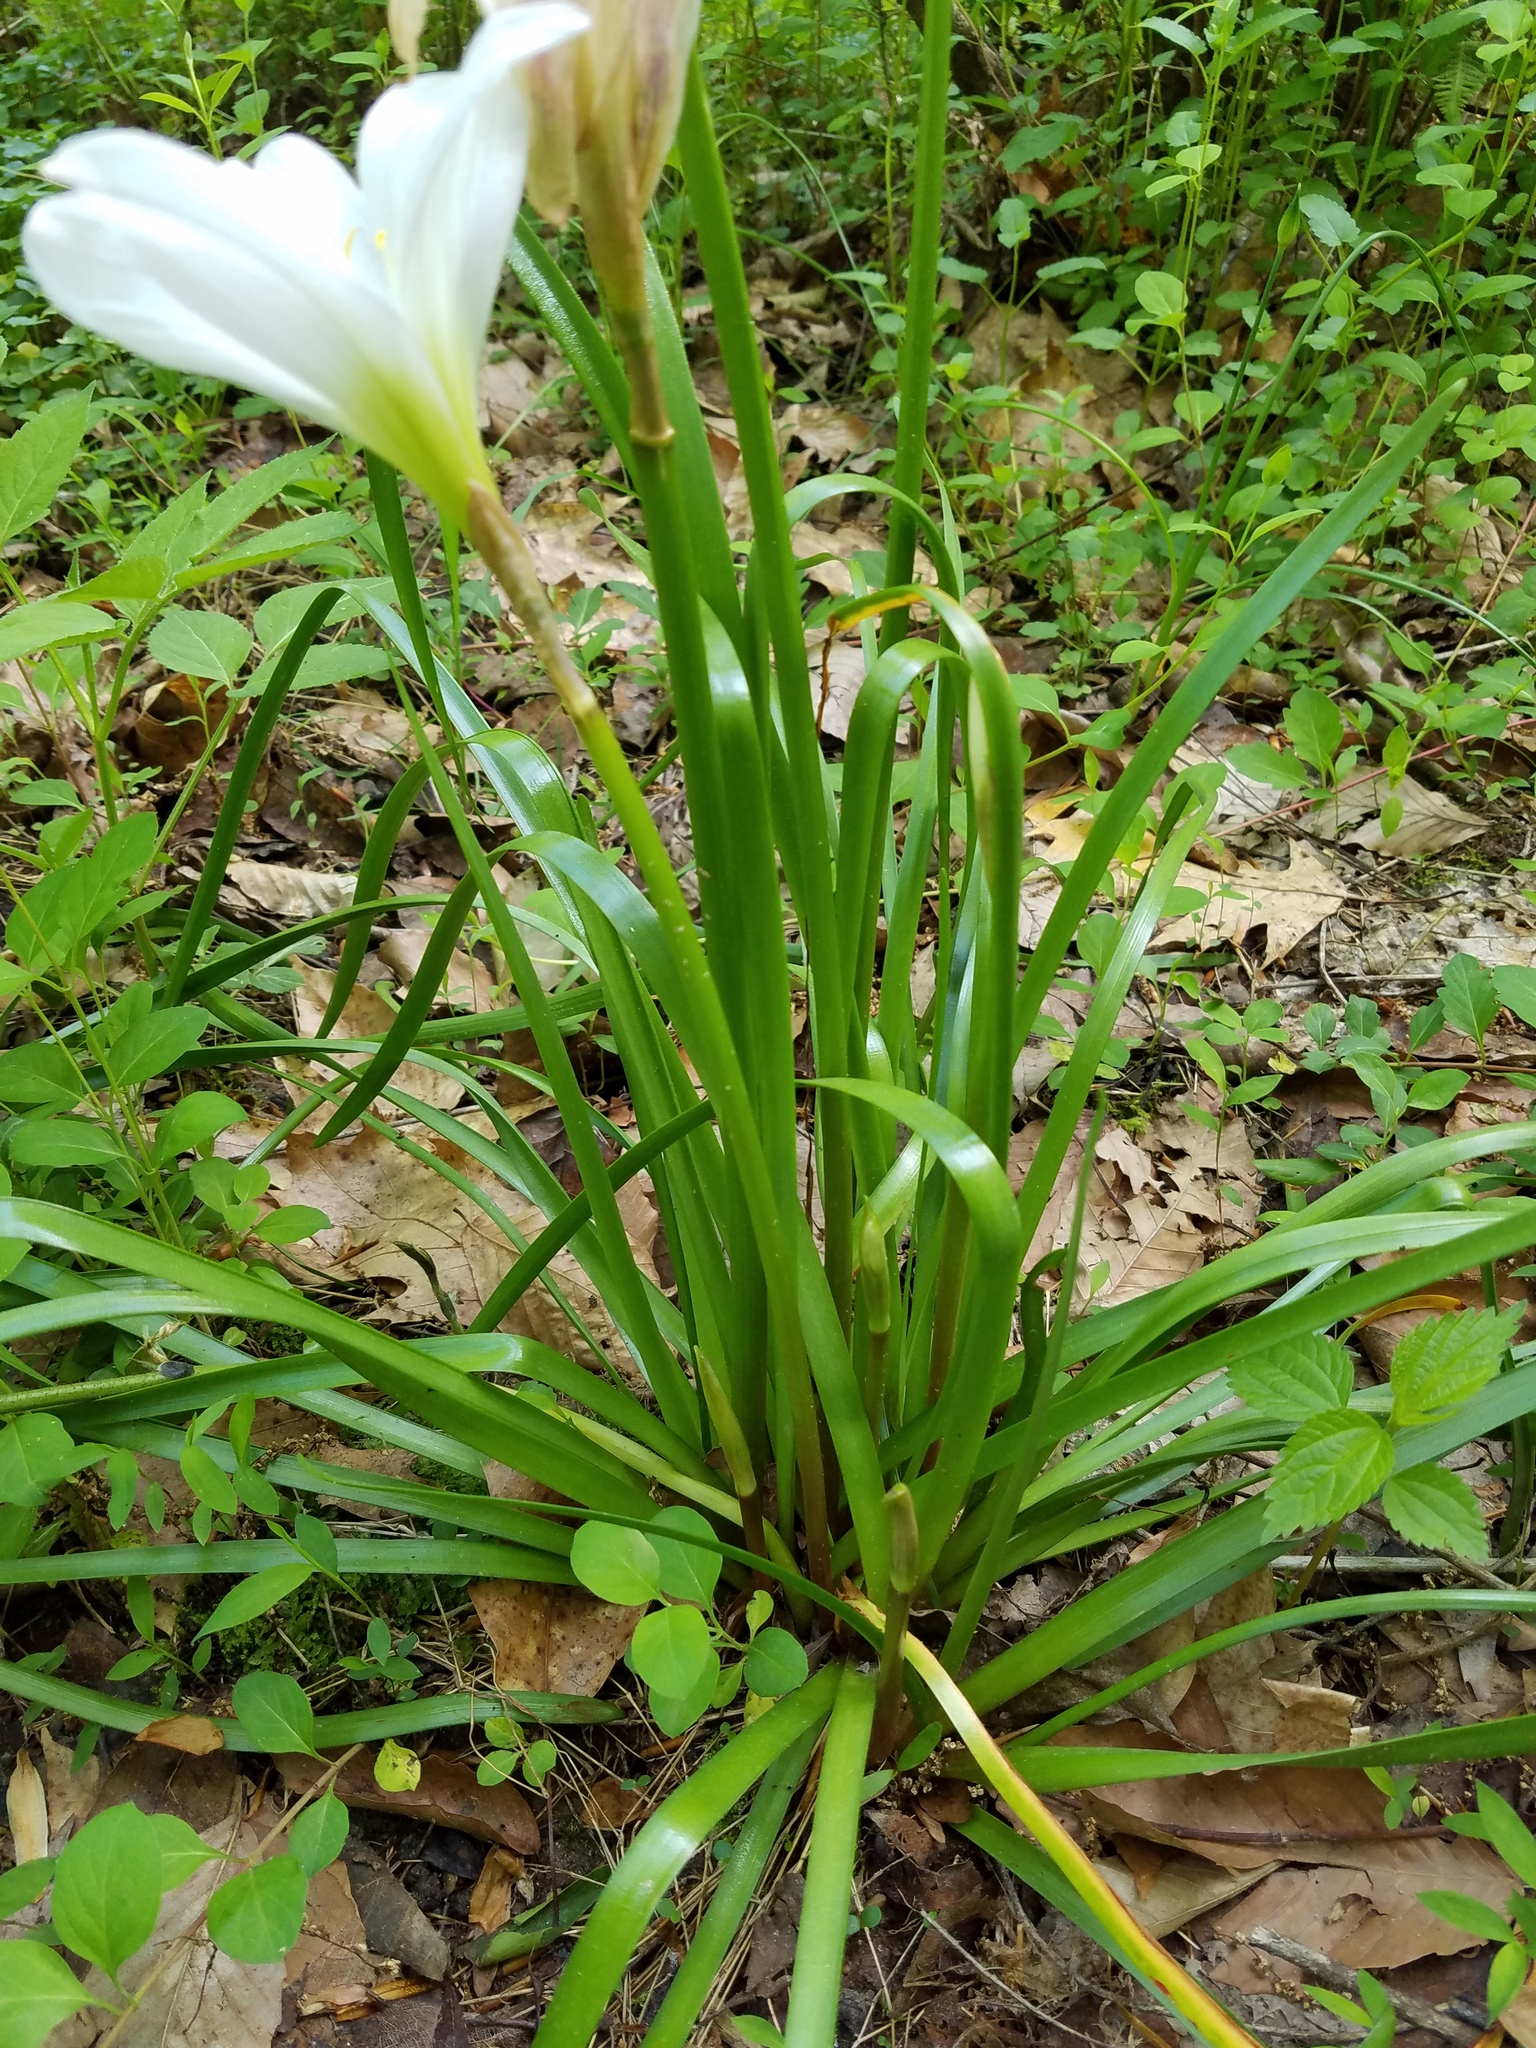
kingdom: Plantae
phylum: Tracheophyta
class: Liliopsida
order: Asparagales
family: Amaryllidaceae
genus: Zephyranthes
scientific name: Zephyranthes atamasco
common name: Atamasco lily
